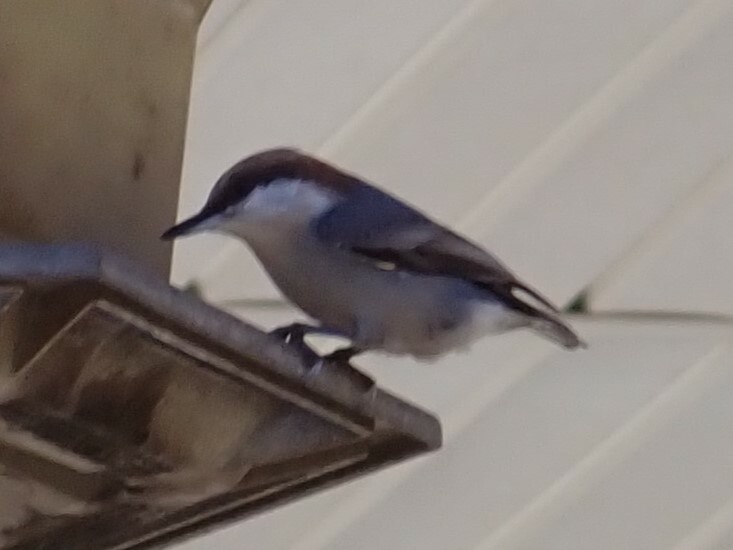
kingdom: Animalia
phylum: Chordata
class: Aves
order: Passeriformes
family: Sittidae
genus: Sitta
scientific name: Sitta pusilla
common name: Brown-headed nuthatch
